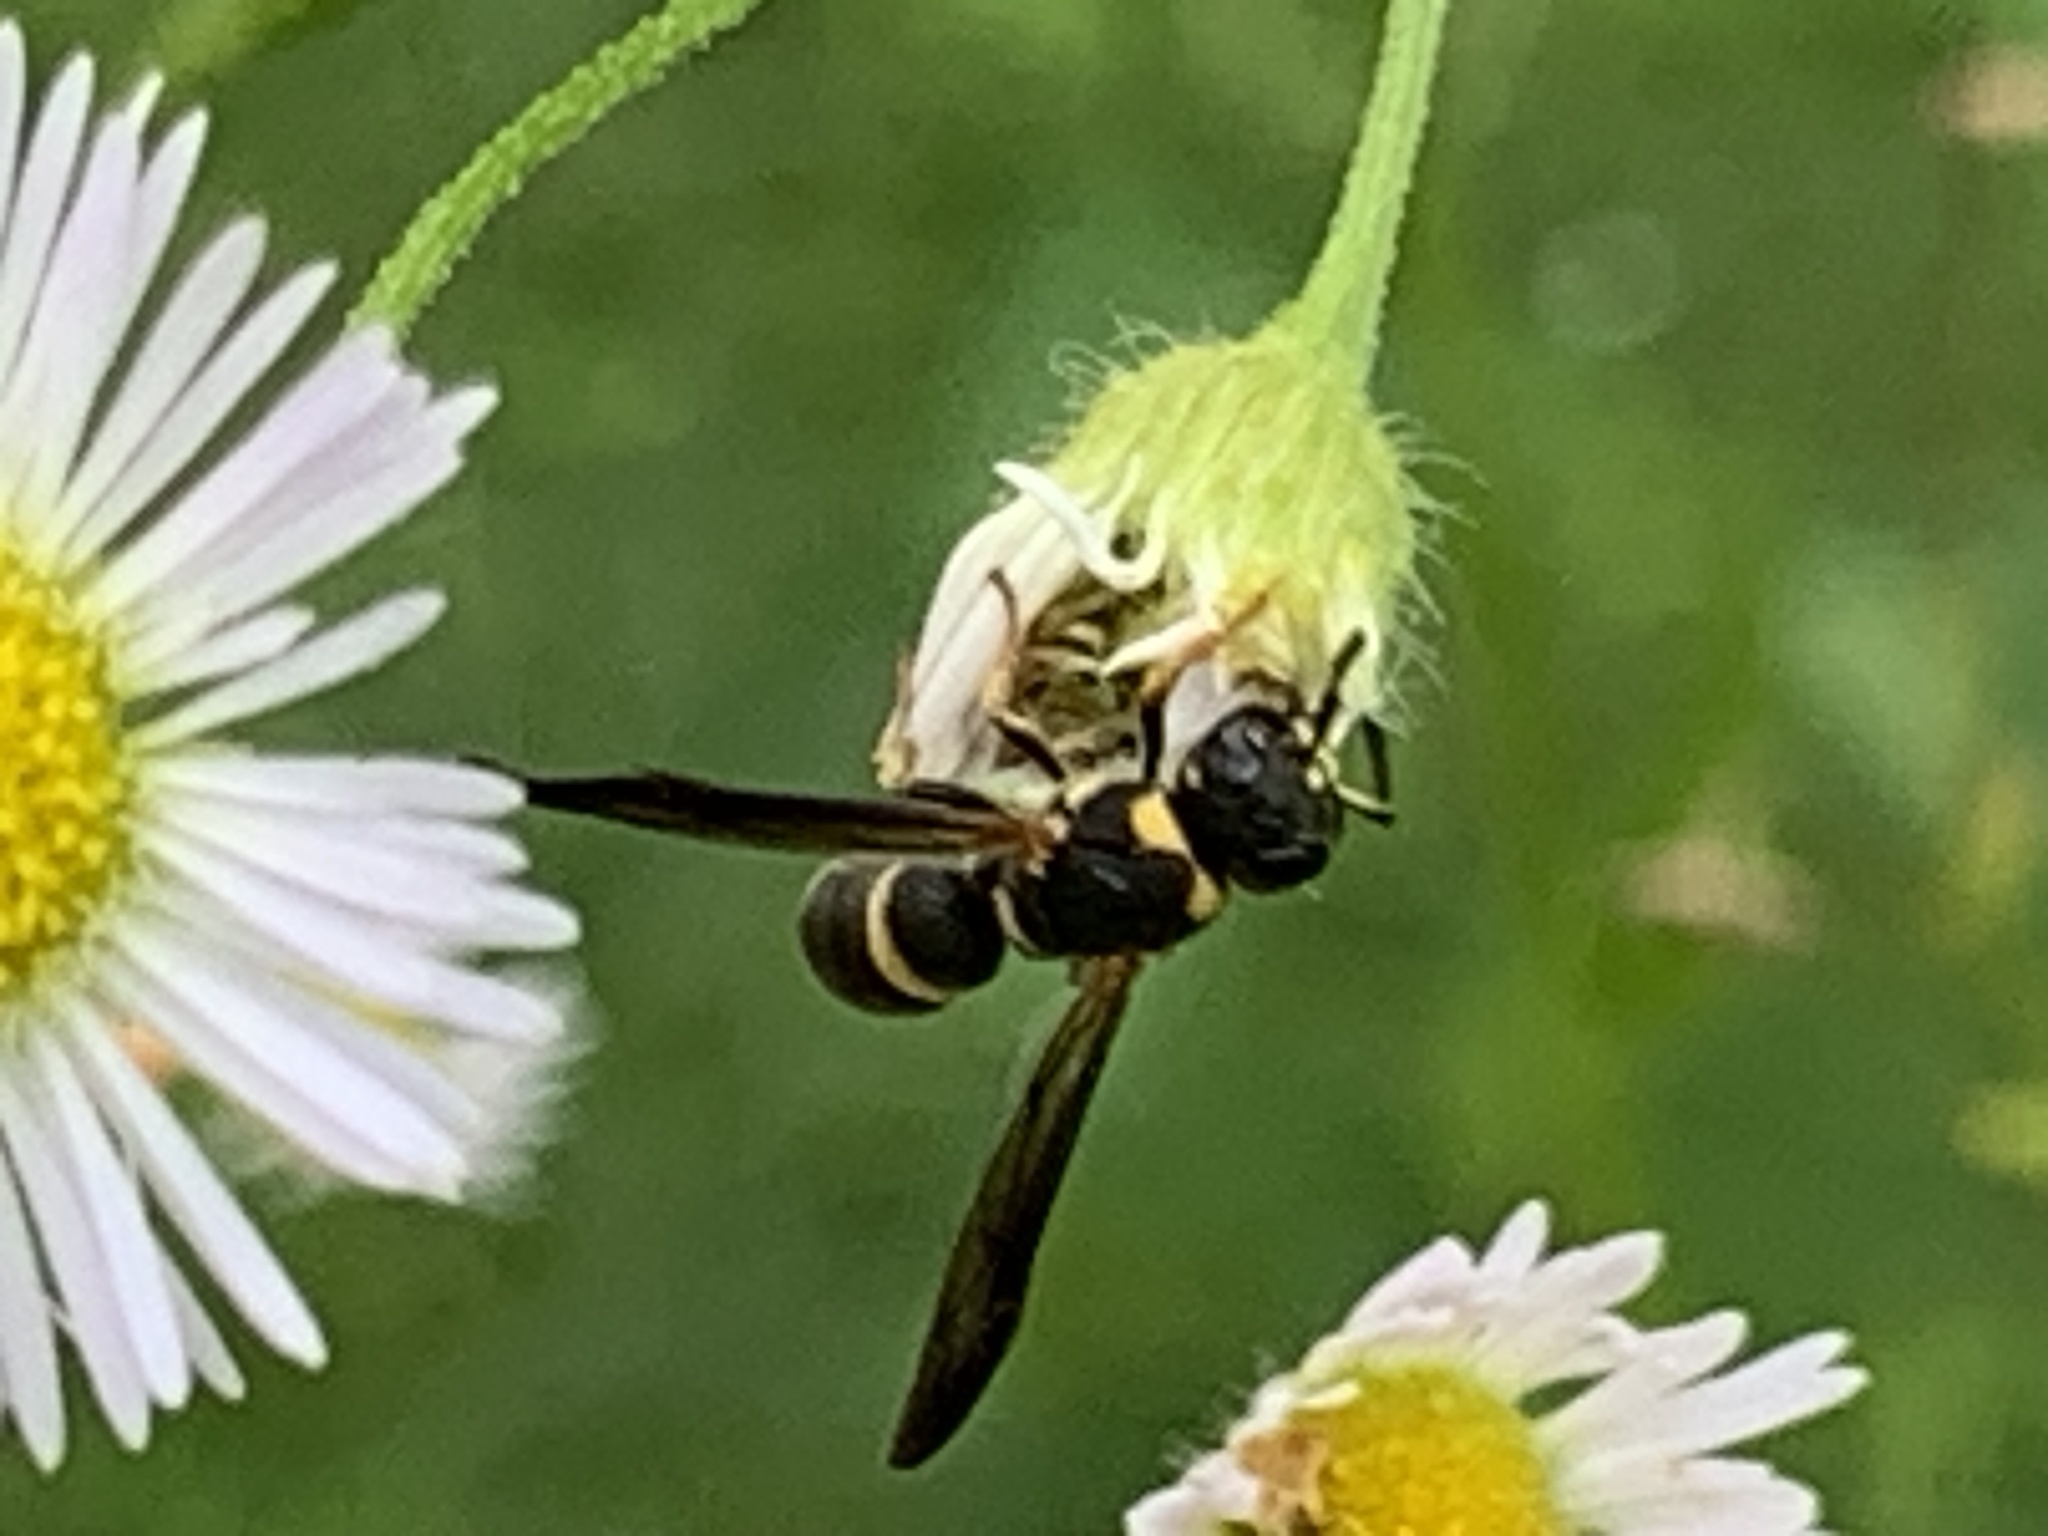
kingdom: Animalia
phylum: Arthropoda
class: Insecta
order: Hymenoptera
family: Eumenidae
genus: Parancistrocerus
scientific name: Parancistrocerus perennis
